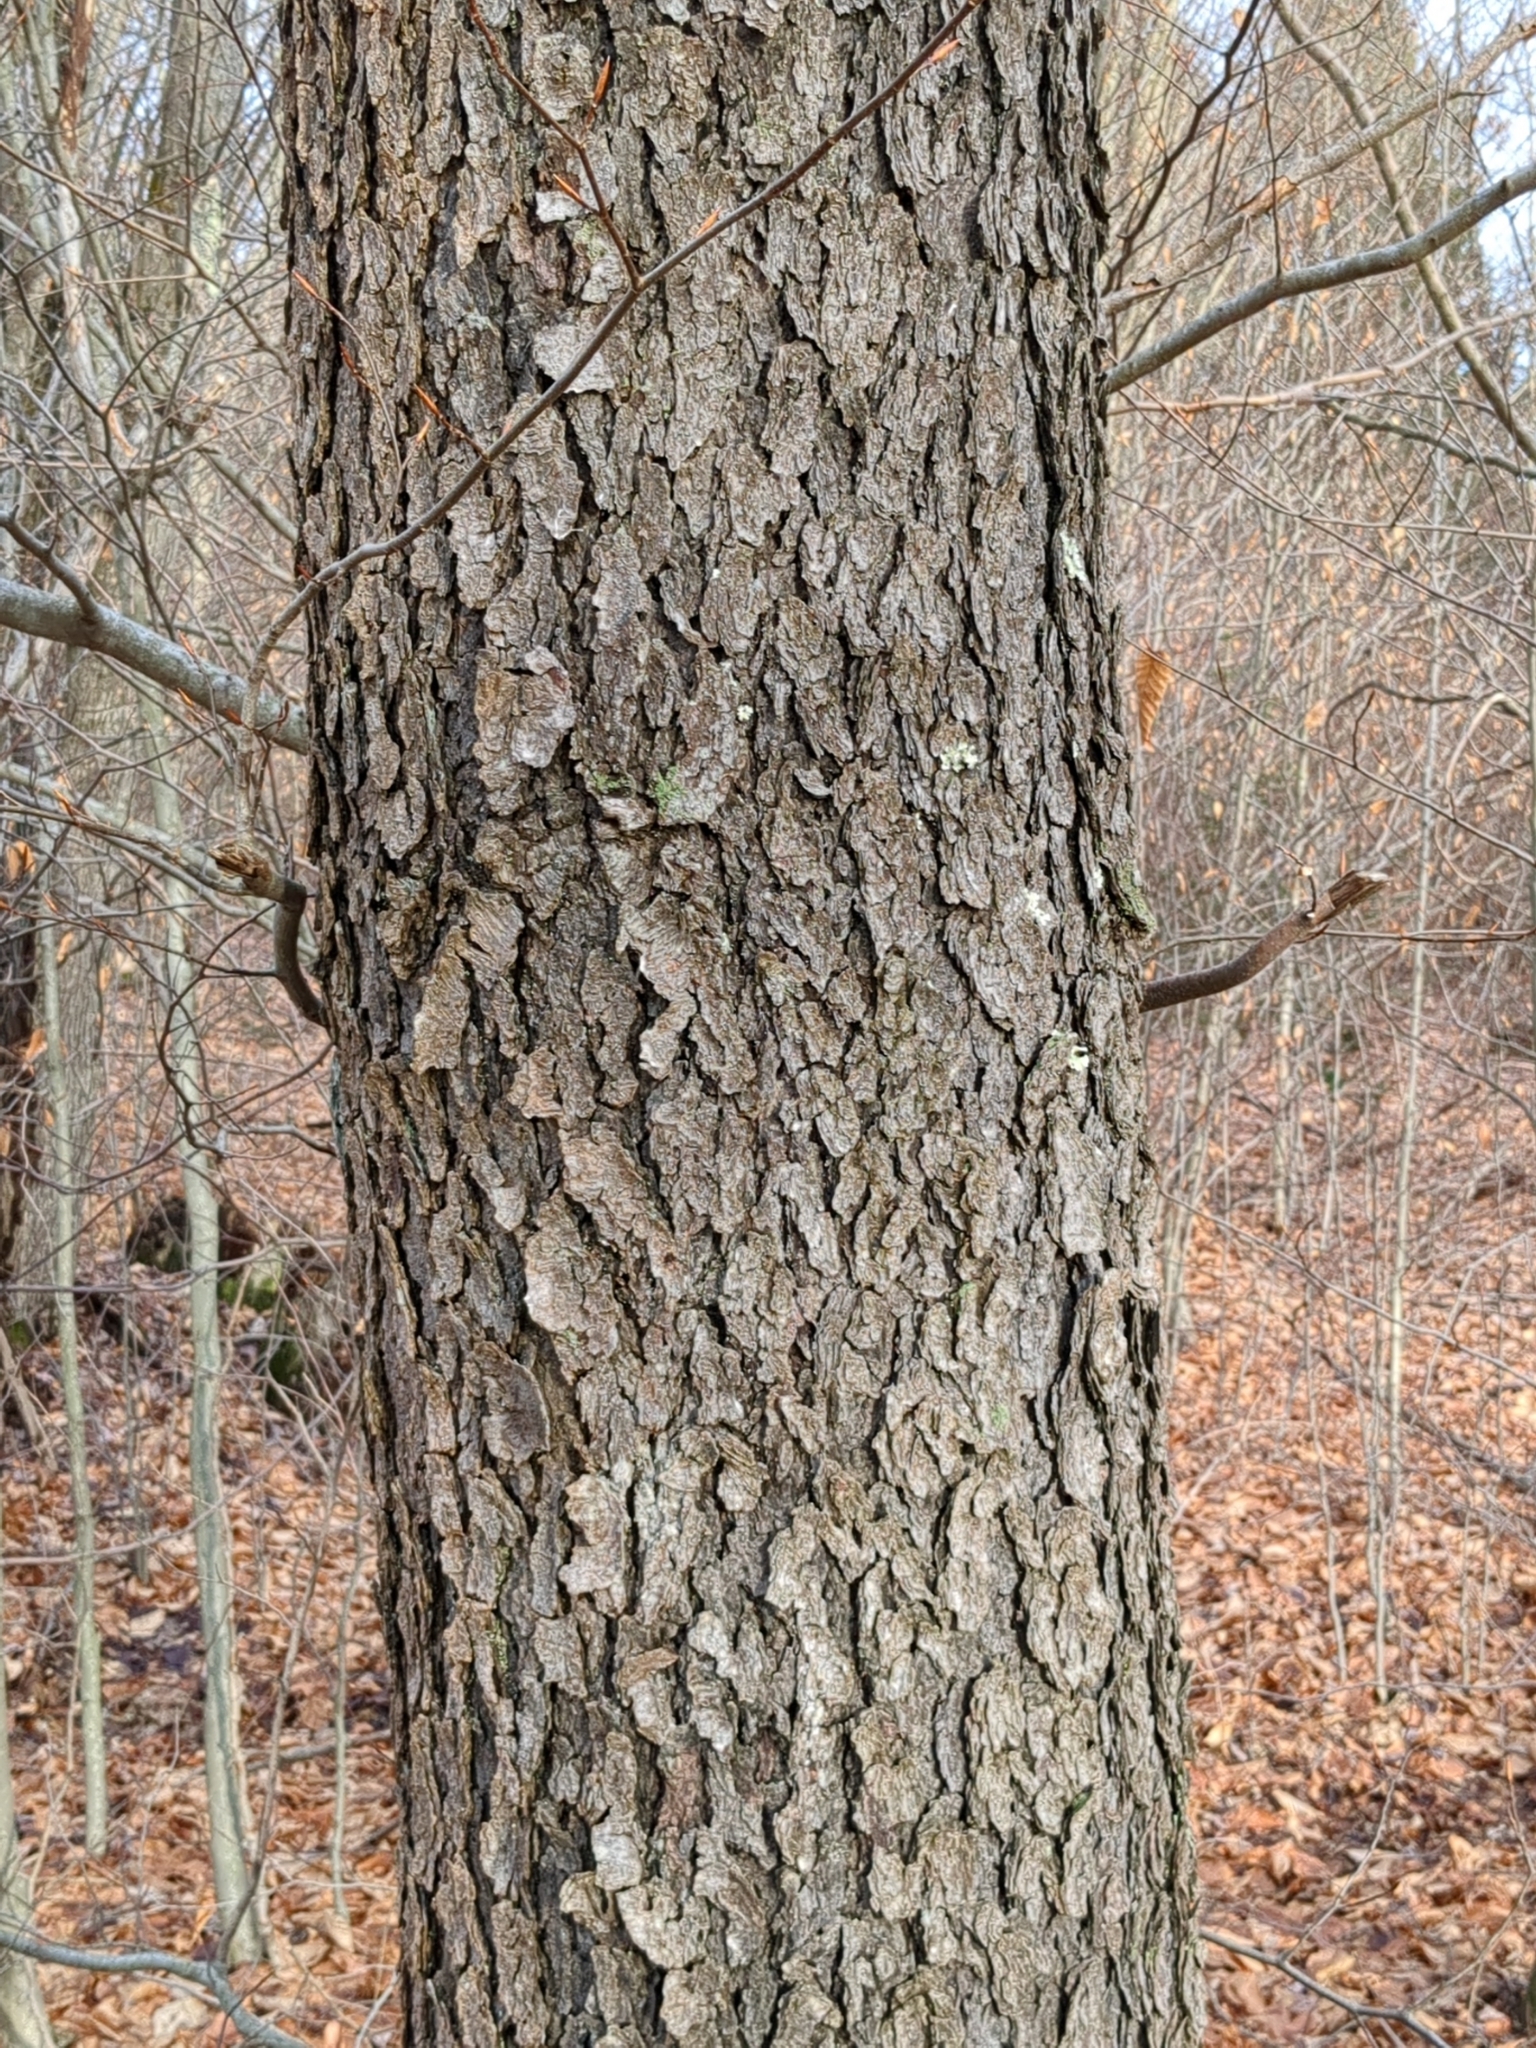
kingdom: Plantae
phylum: Tracheophyta
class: Magnoliopsida
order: Rosales
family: Rosaceae
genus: Prunus
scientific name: Prunus serotina
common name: Black cherry
